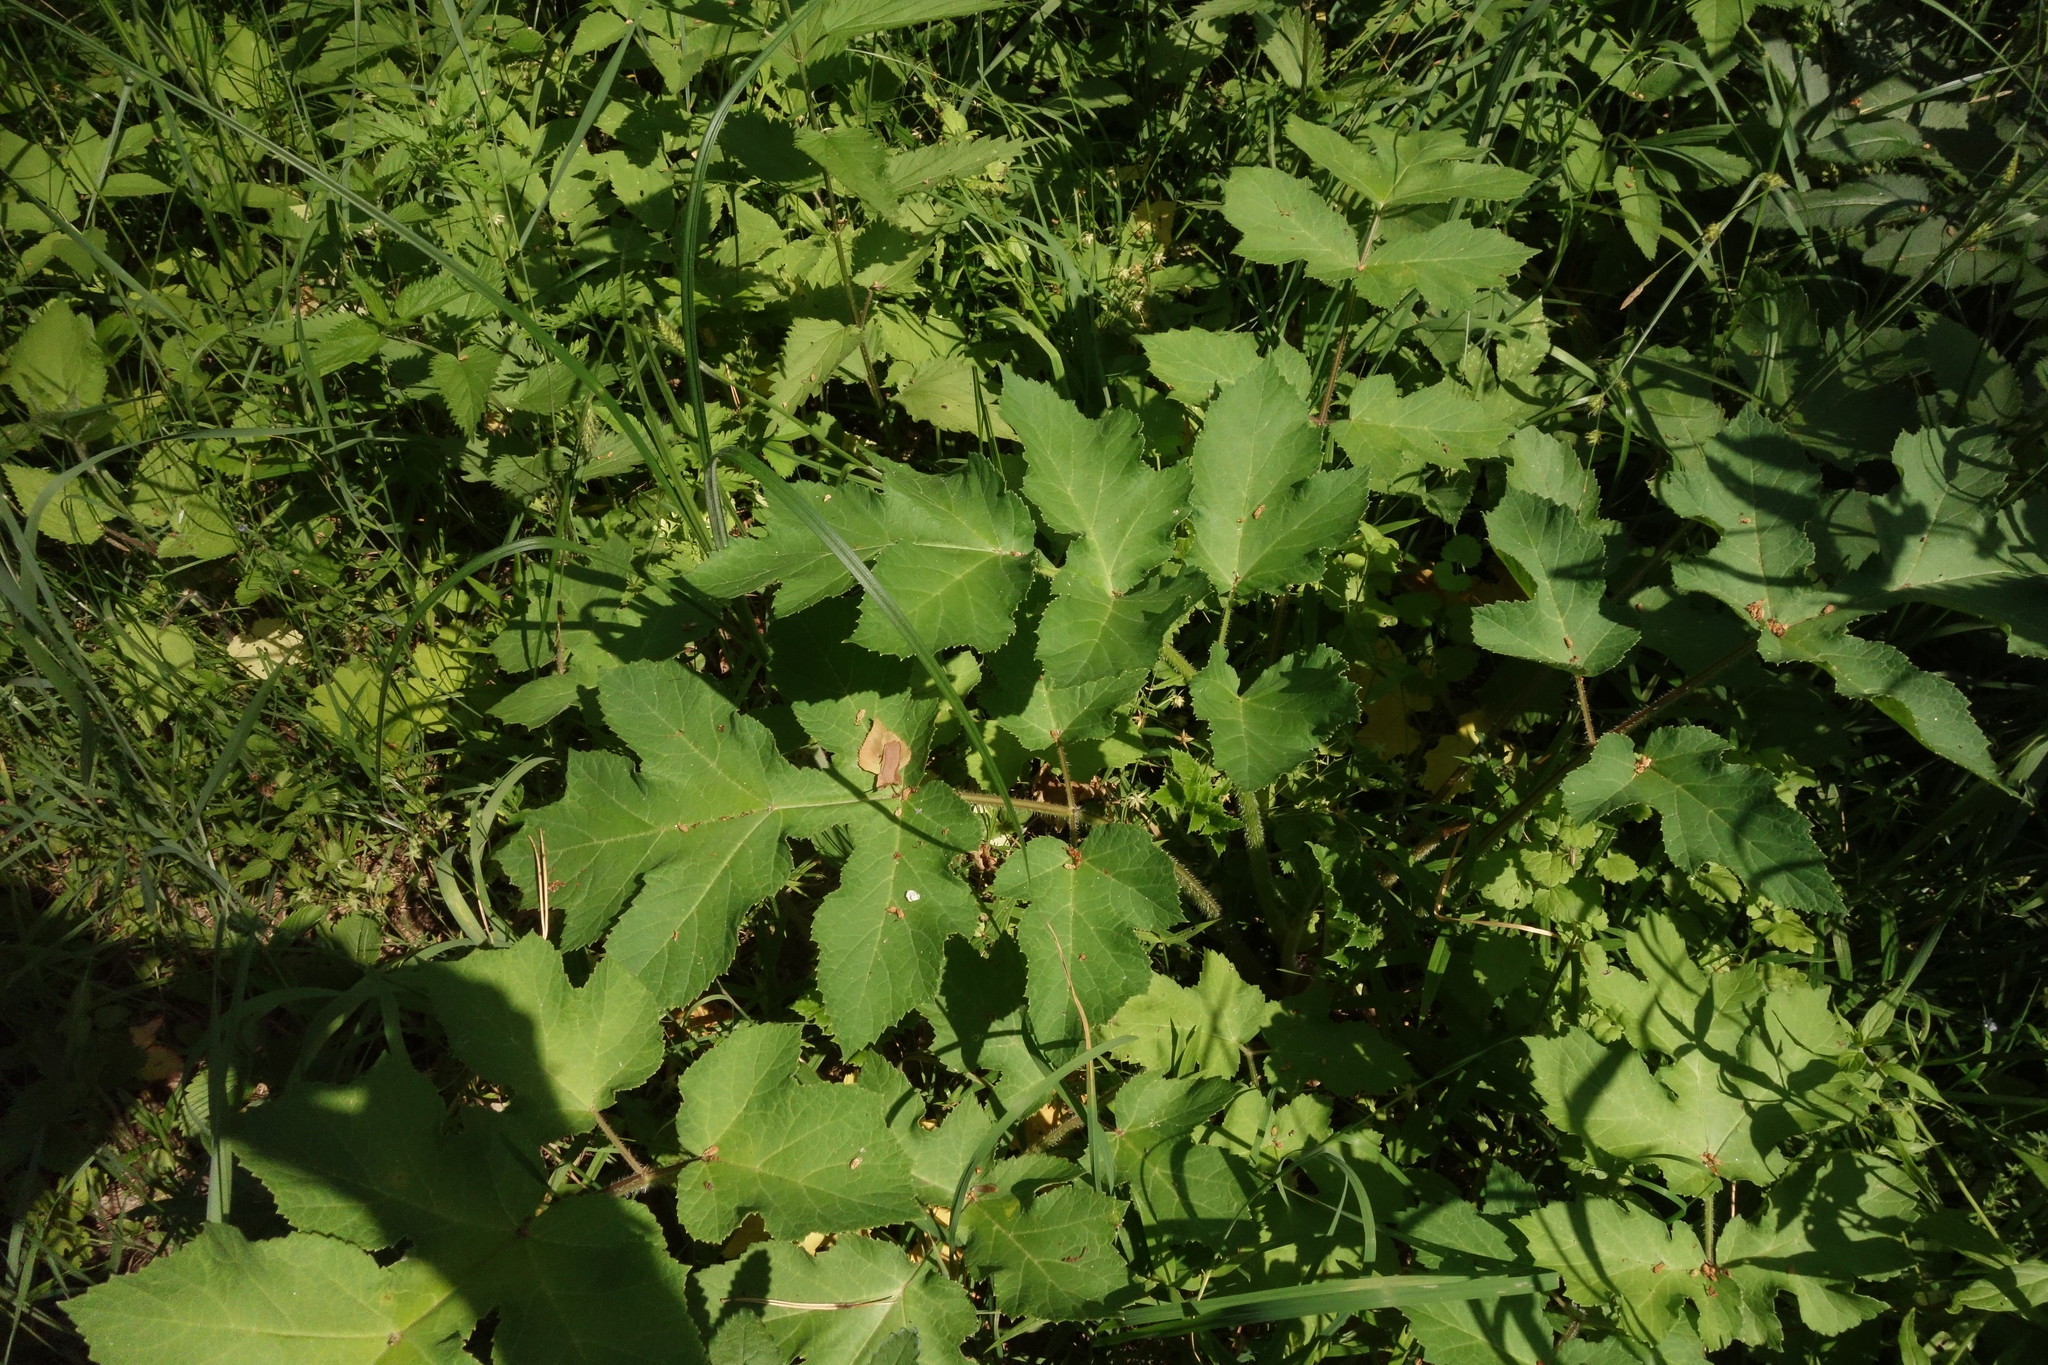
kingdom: Plantae
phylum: Tracheophyta
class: Magnoliopsida
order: Apiales
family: Apiaceae
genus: Heracleum
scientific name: Heracleum sphondylium
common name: Hogweed
